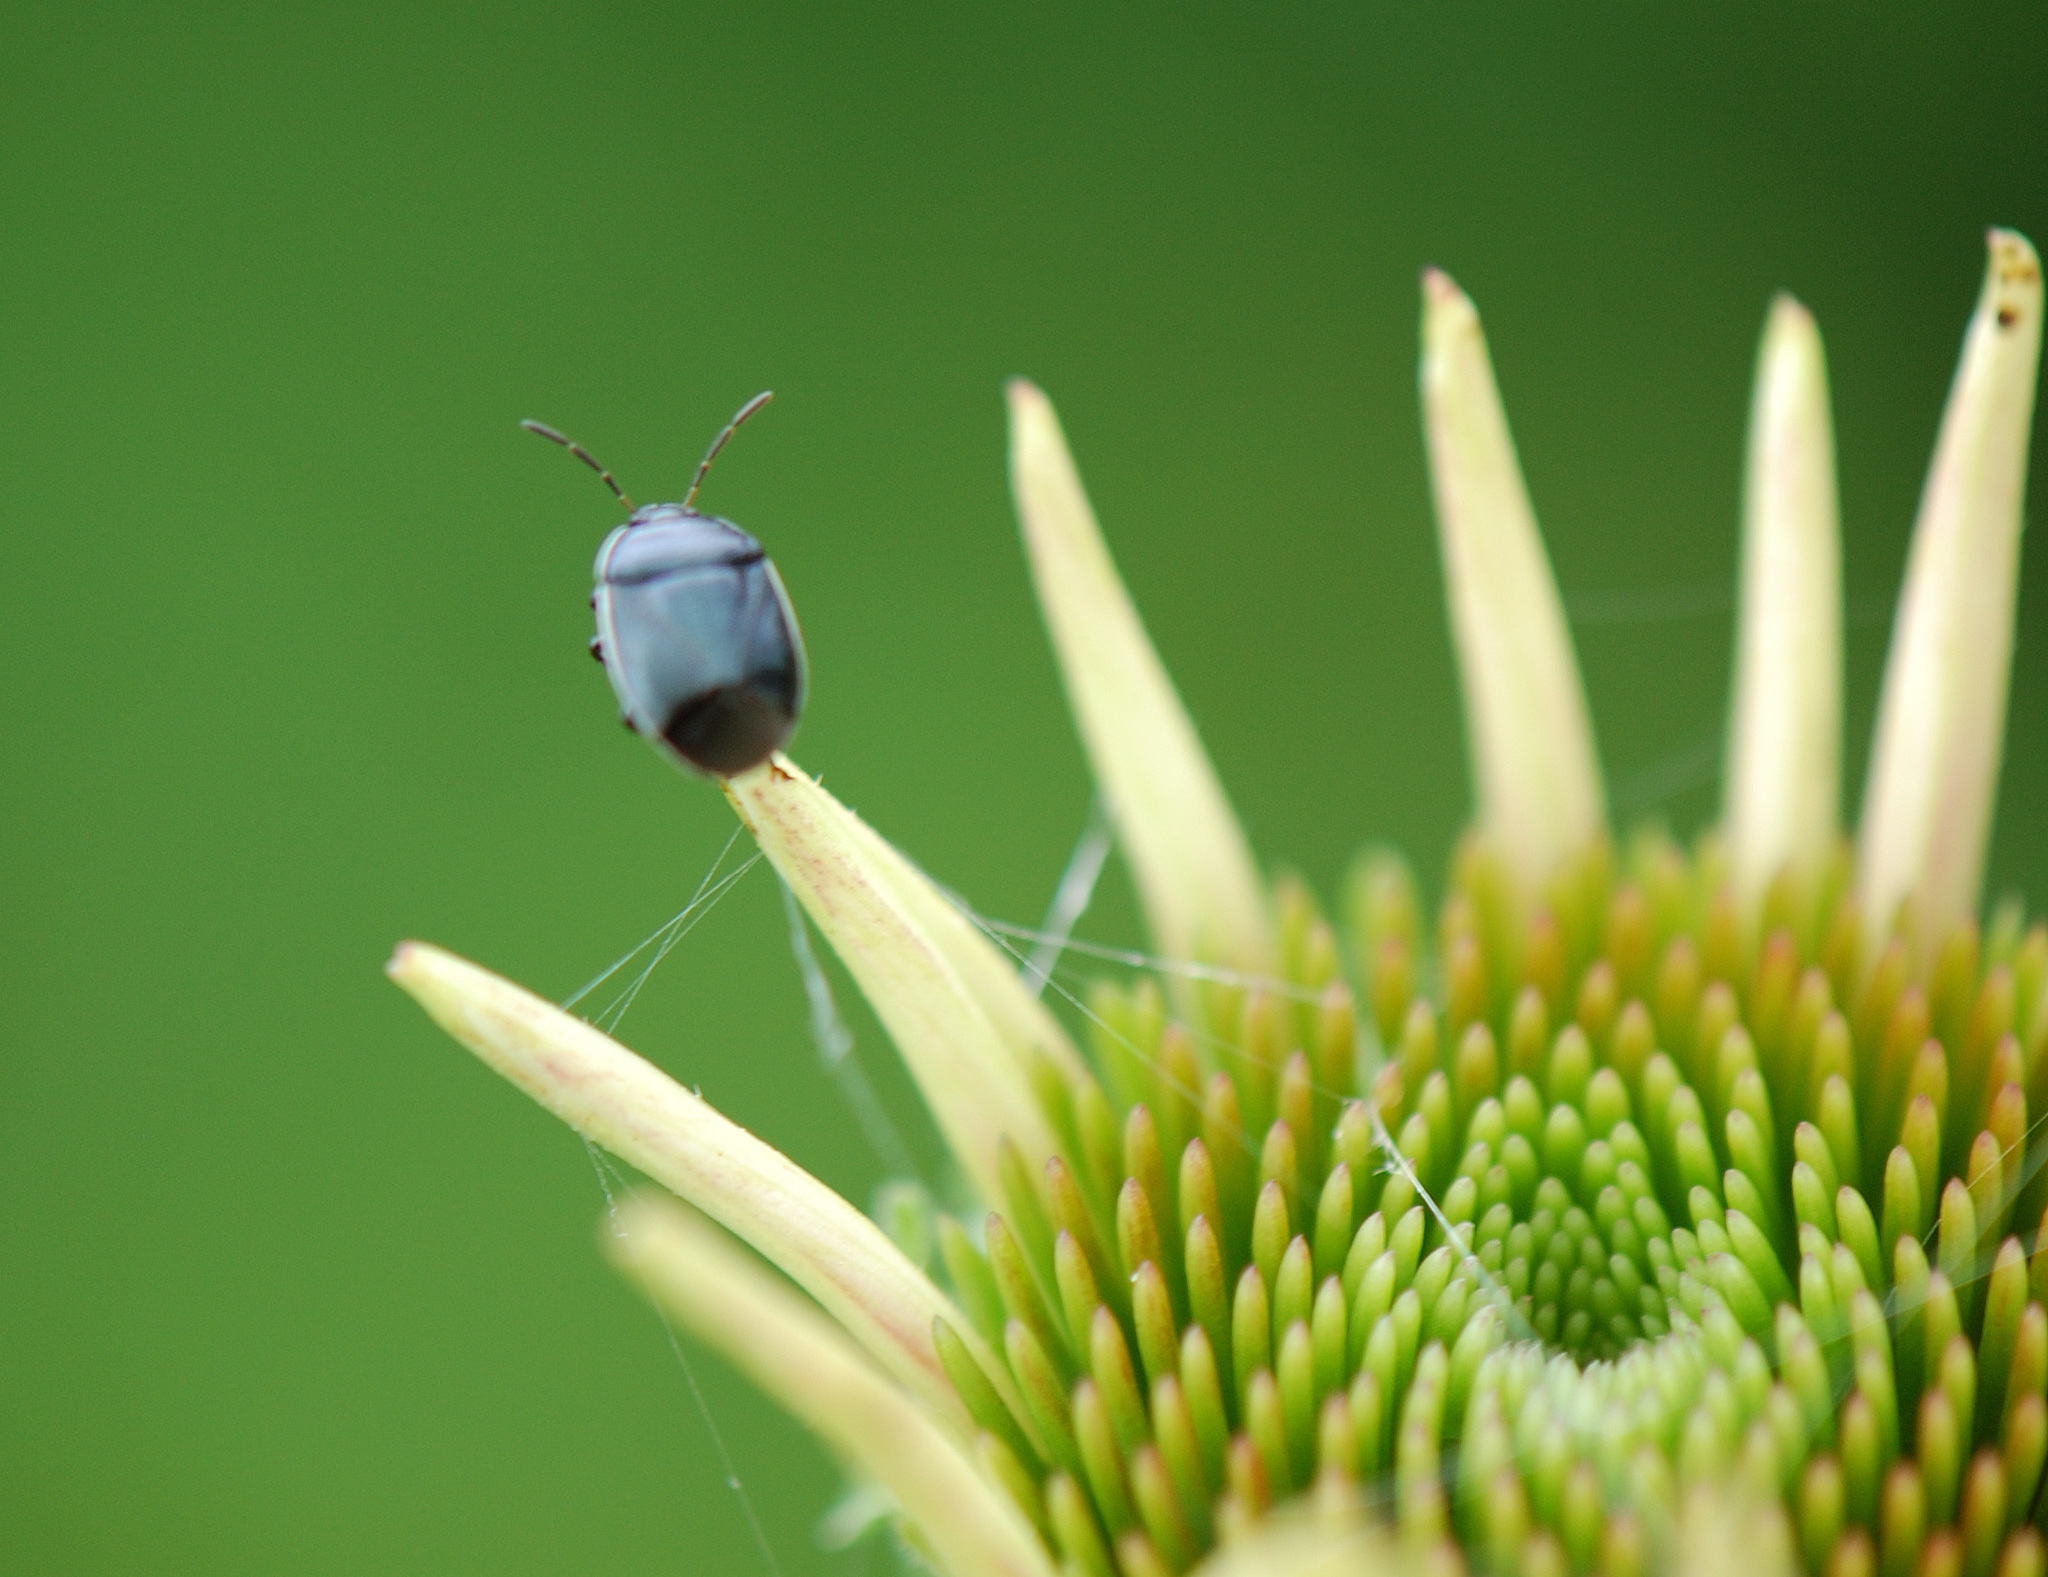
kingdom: Animalia
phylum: Arthropoda
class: Insecta
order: Hemiptera
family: Cydnidae
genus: Sehirus
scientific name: Sehirus cinctus
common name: White-margined burrower bug
